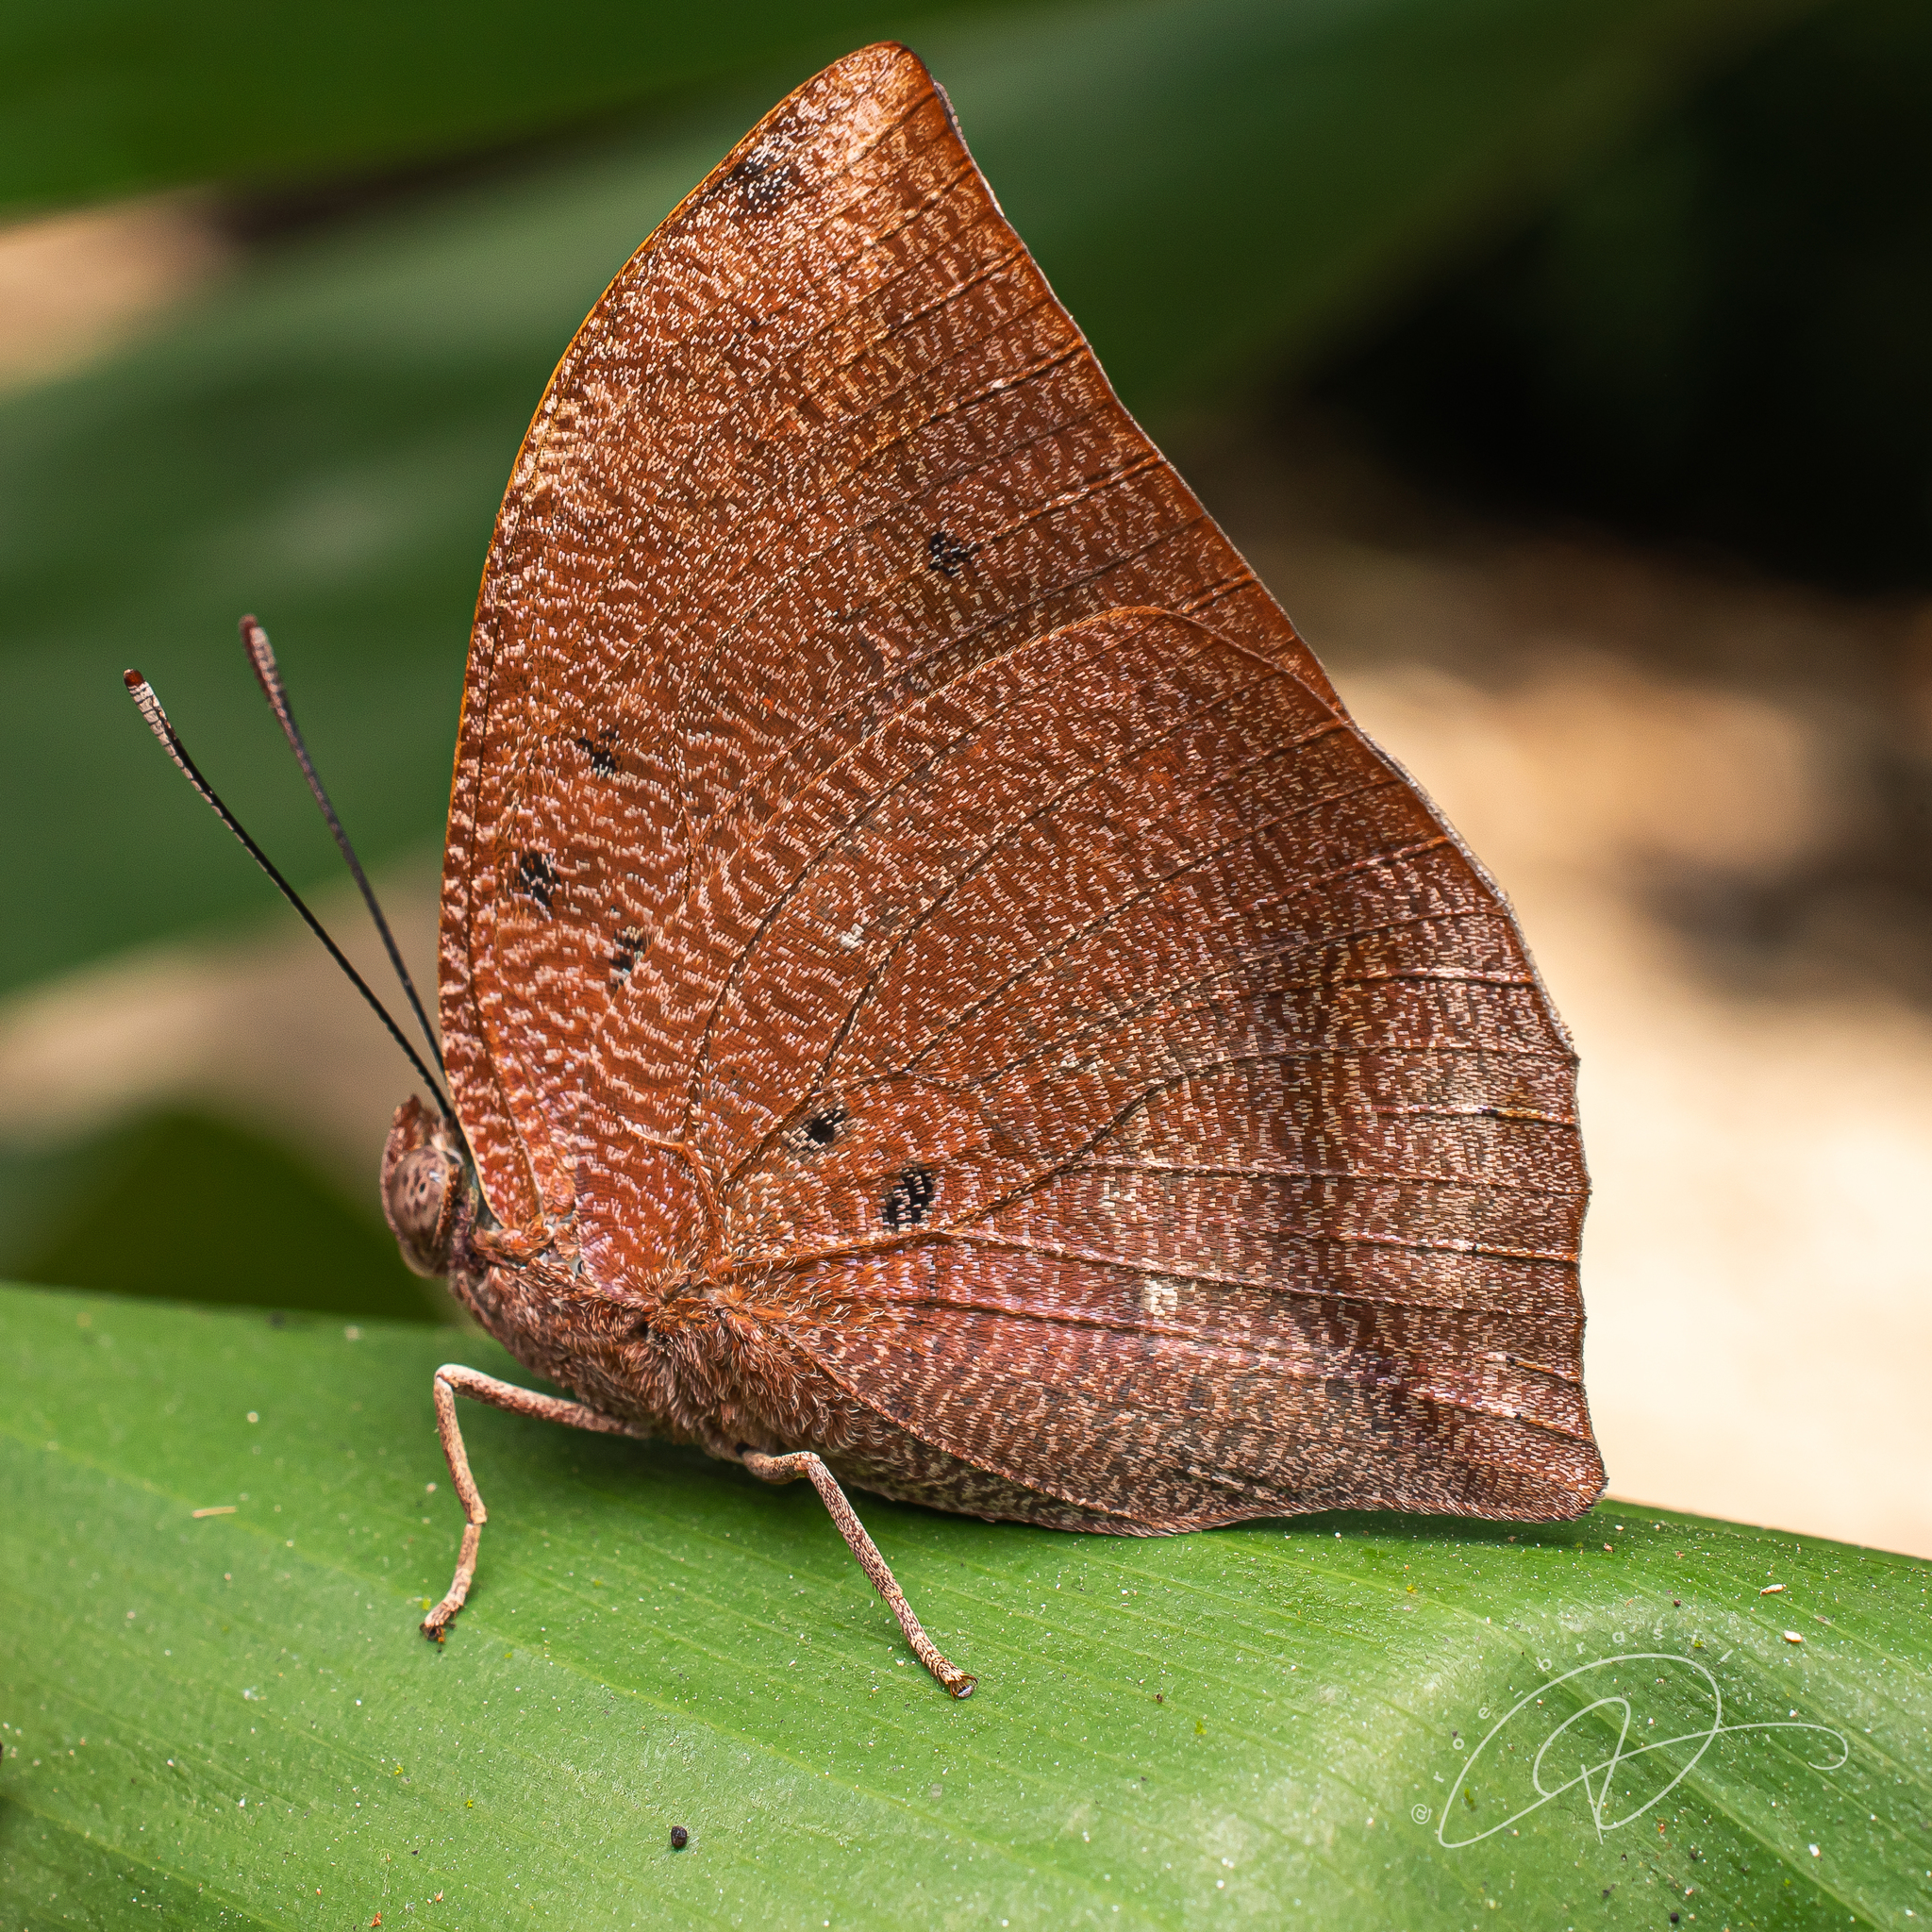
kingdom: Animalia
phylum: Arthropoda
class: Insecta
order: Lepidoptera
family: Nymphalidae
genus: Anaea
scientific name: Anaea ryphea
